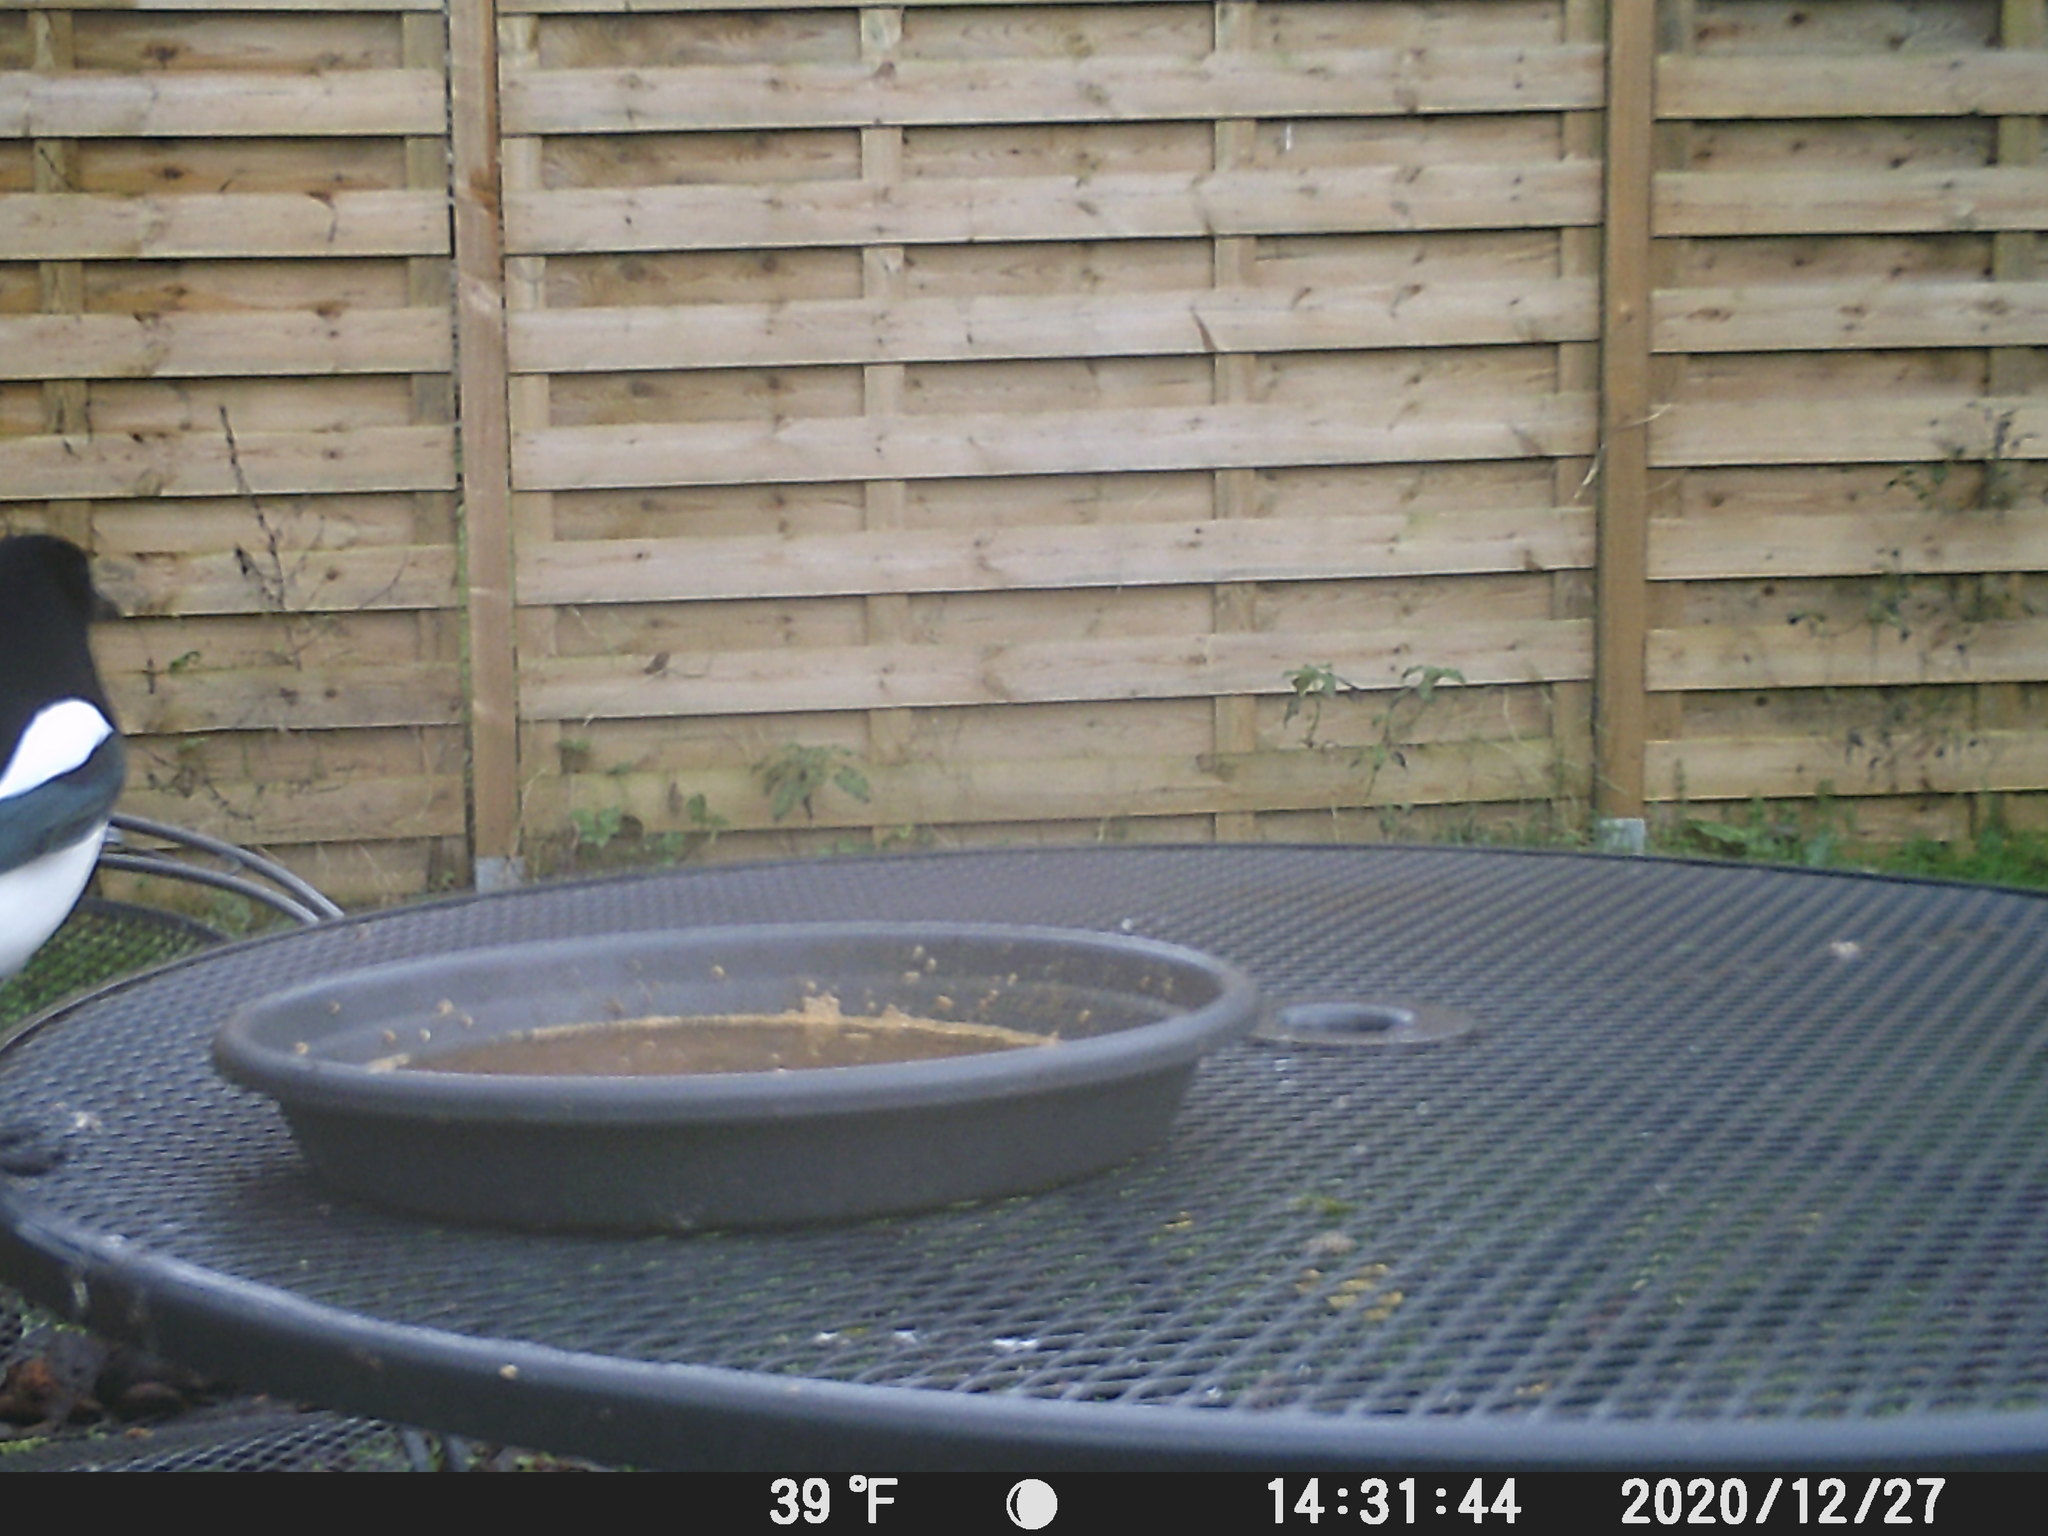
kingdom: Animalia
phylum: Chordata
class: Aves
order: Passeriformes
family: Corvidae
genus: Pica
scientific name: Pica pica
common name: Eurasian magpie
